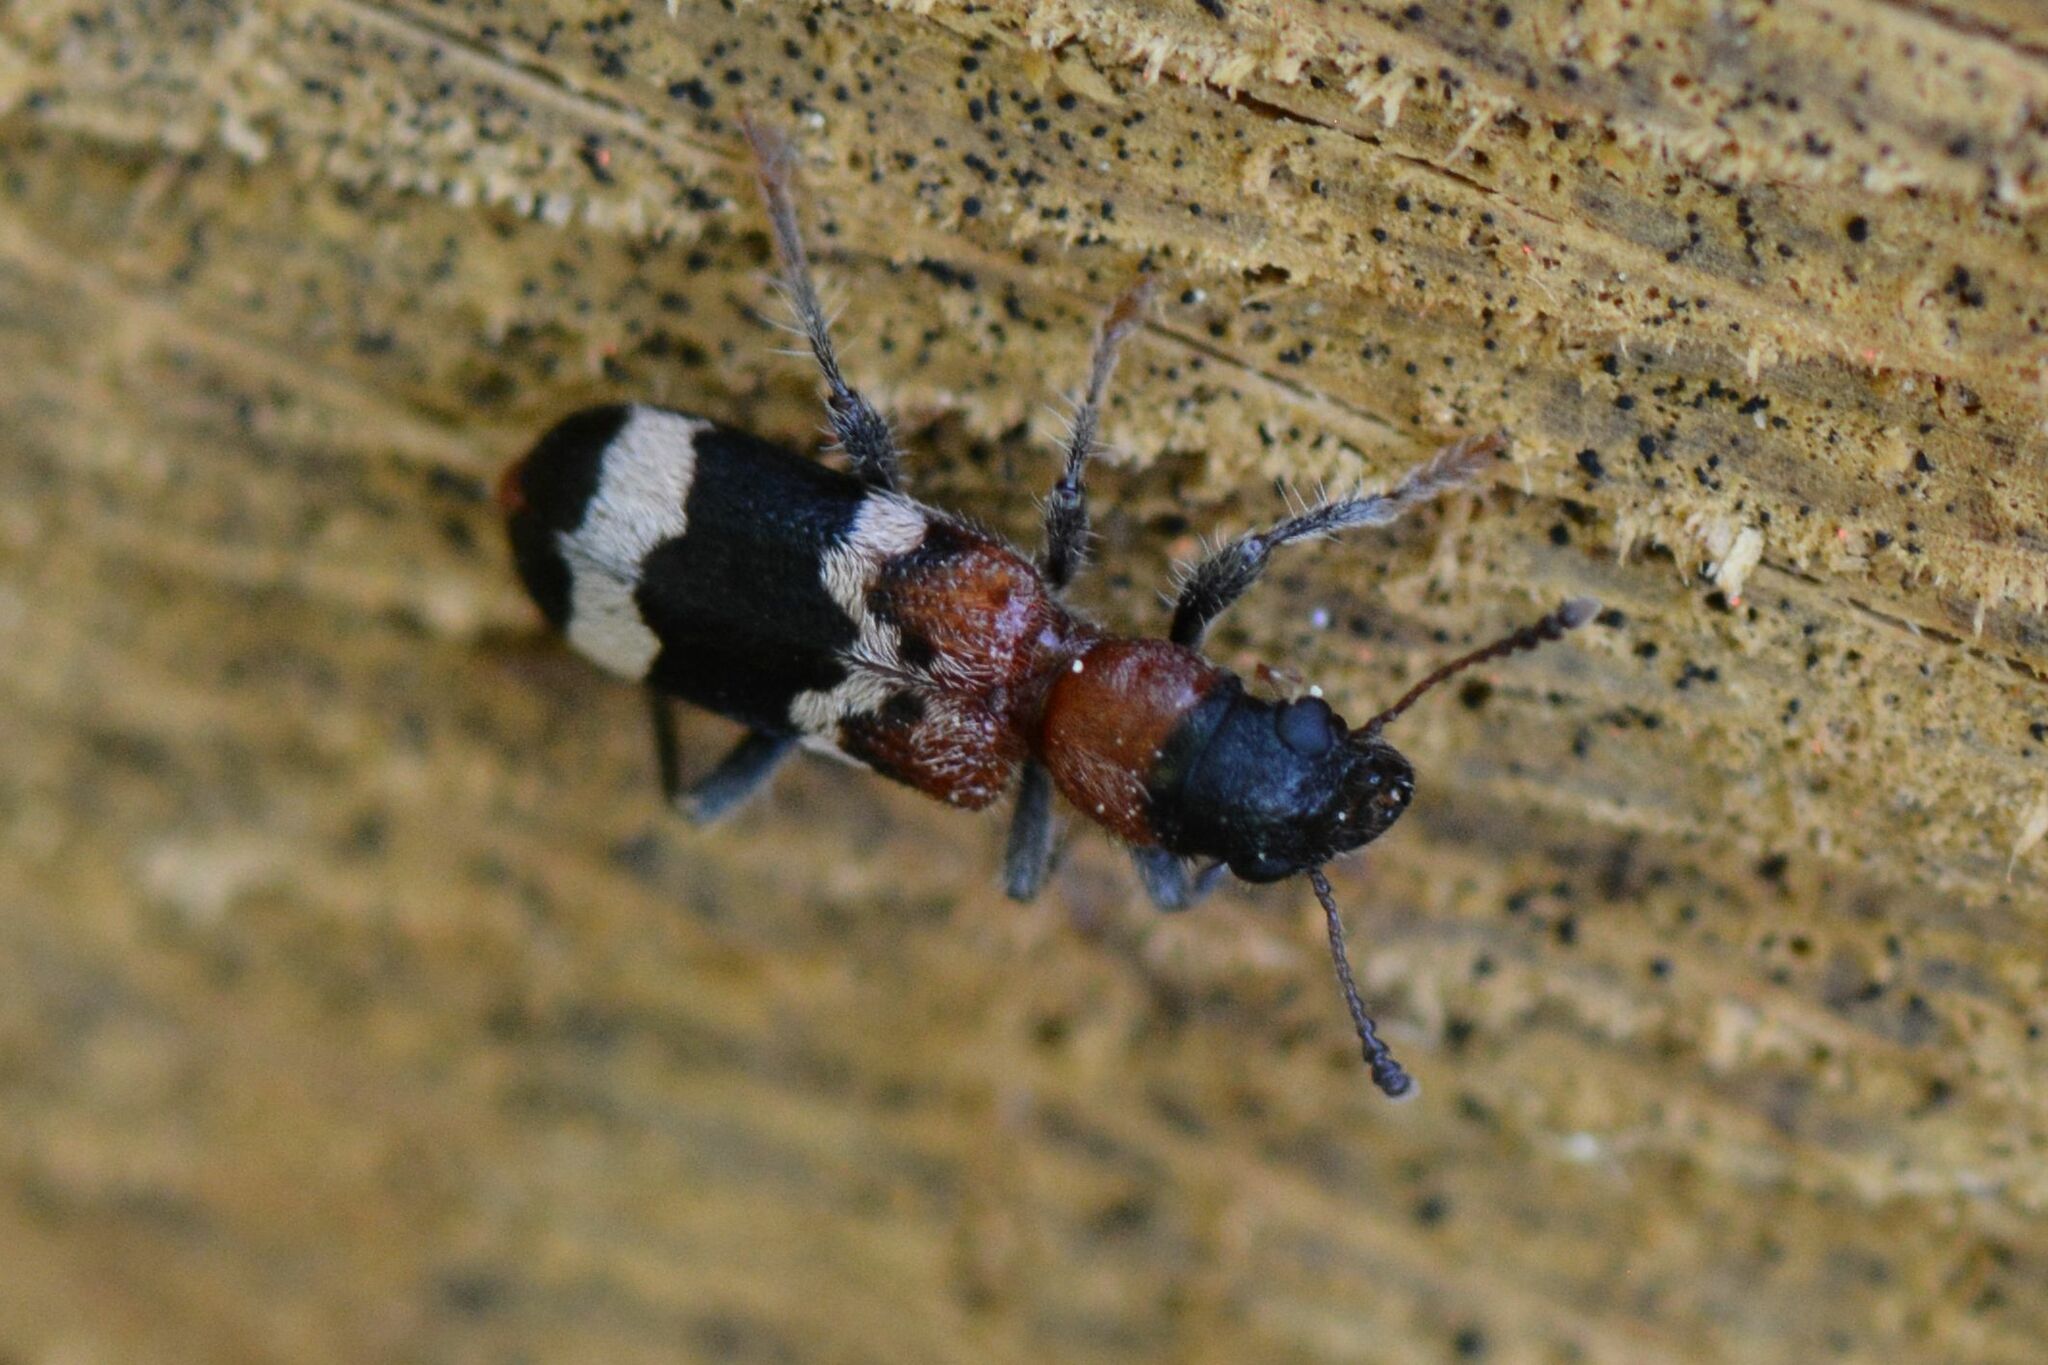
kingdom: Animalia
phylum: Arthropoda
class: Insecta
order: Coleoptera
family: Cleridae
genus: Thanasimus
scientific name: Thanasimus formicarius
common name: Ant beetle
